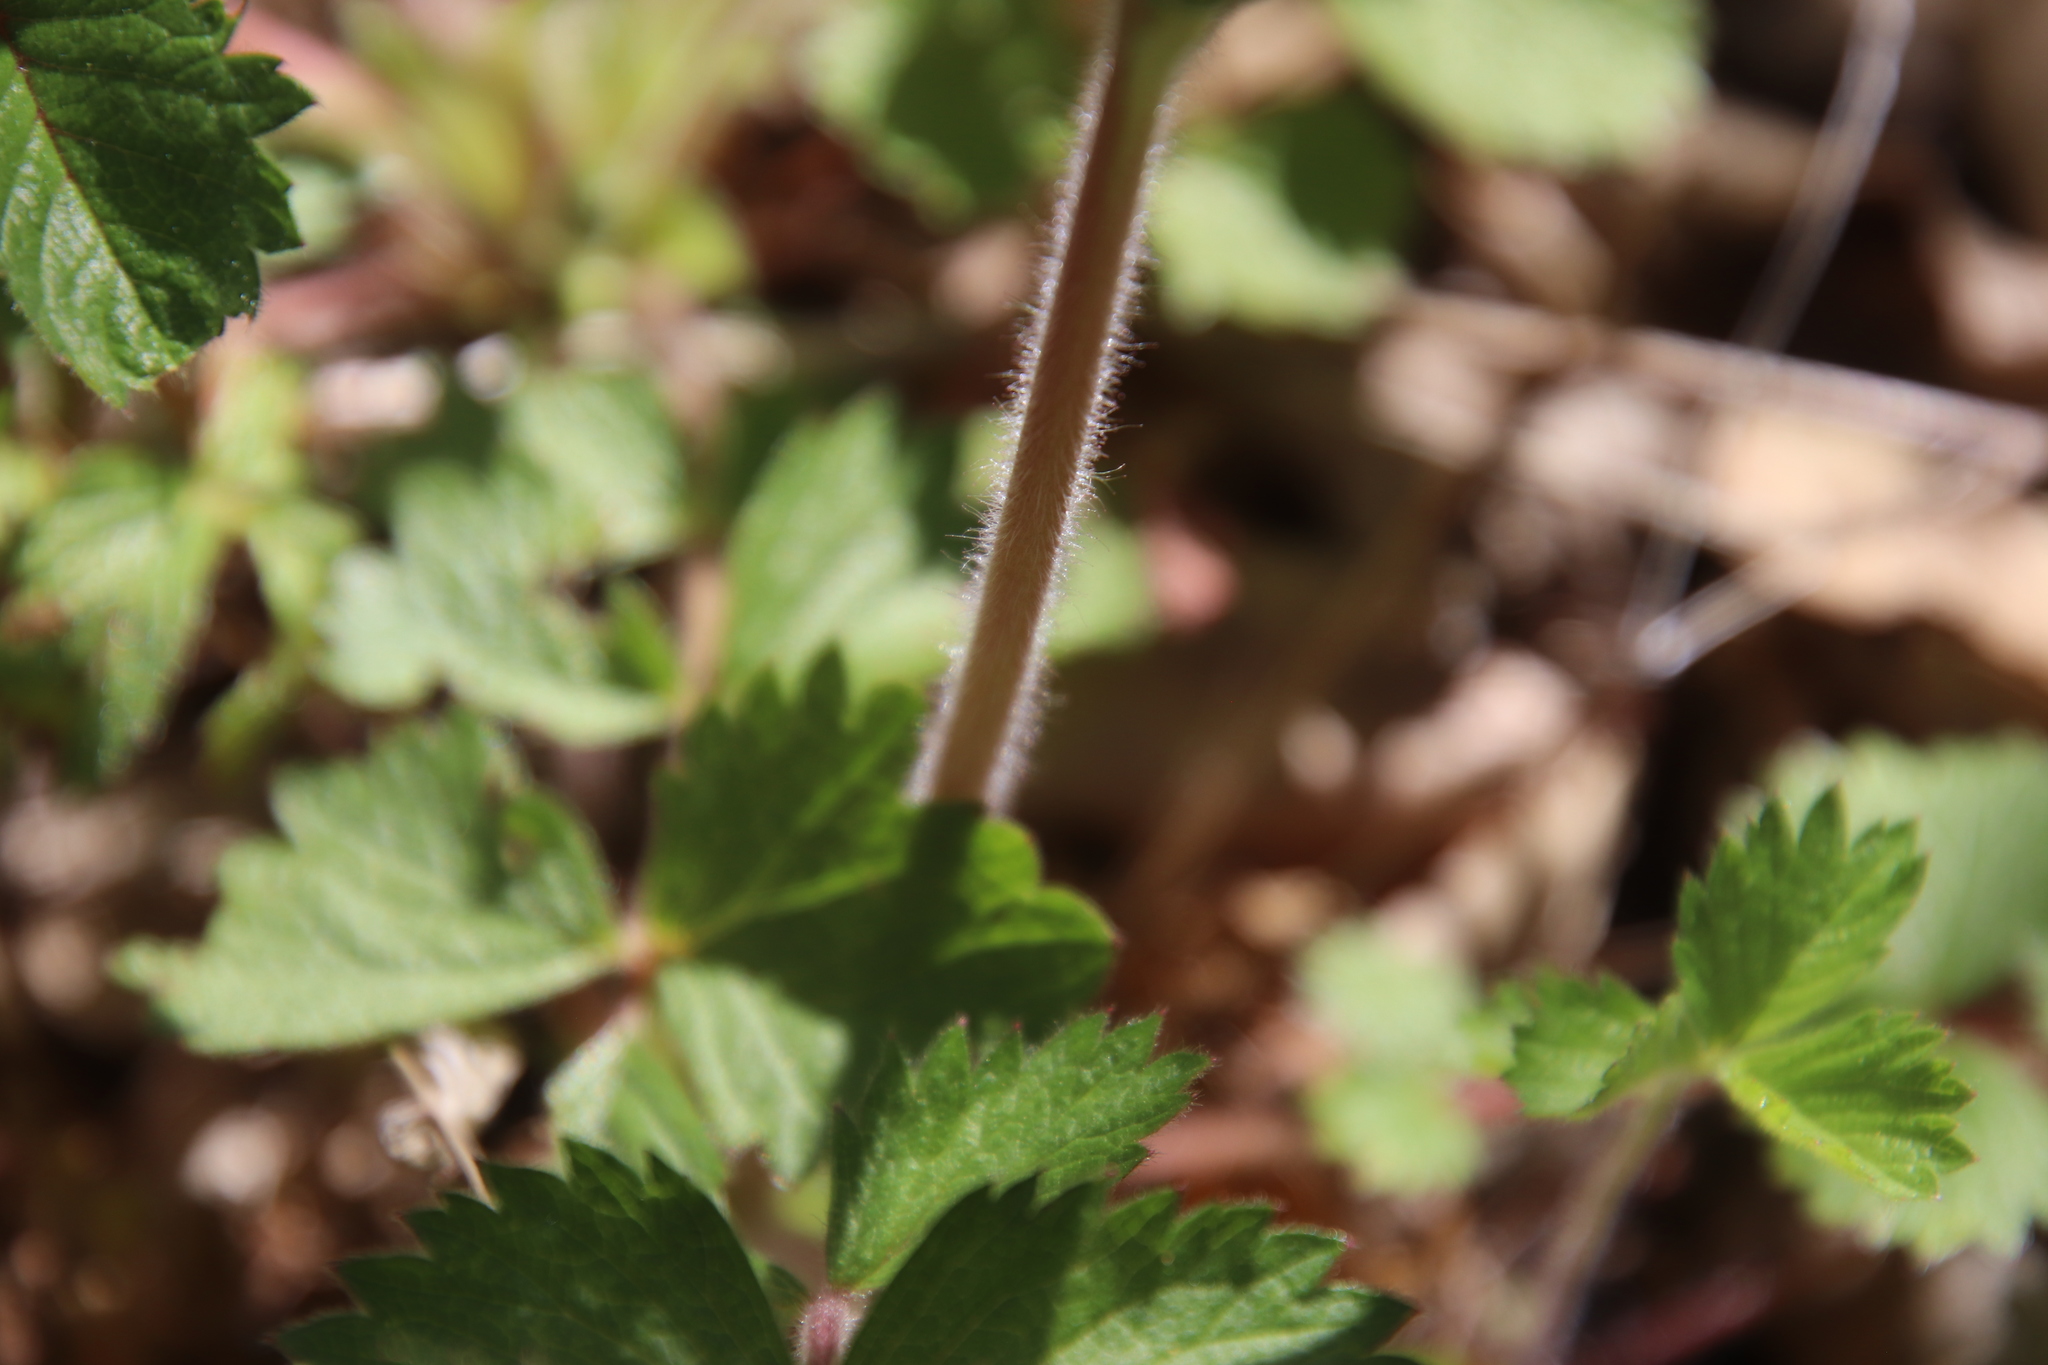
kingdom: Plantae
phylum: Tracheophyta
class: Magnoliopsida
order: Rosales
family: Rosaceae
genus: Drymocallis
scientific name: Drymocallis glandulosa
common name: Sticky cinquefoil
